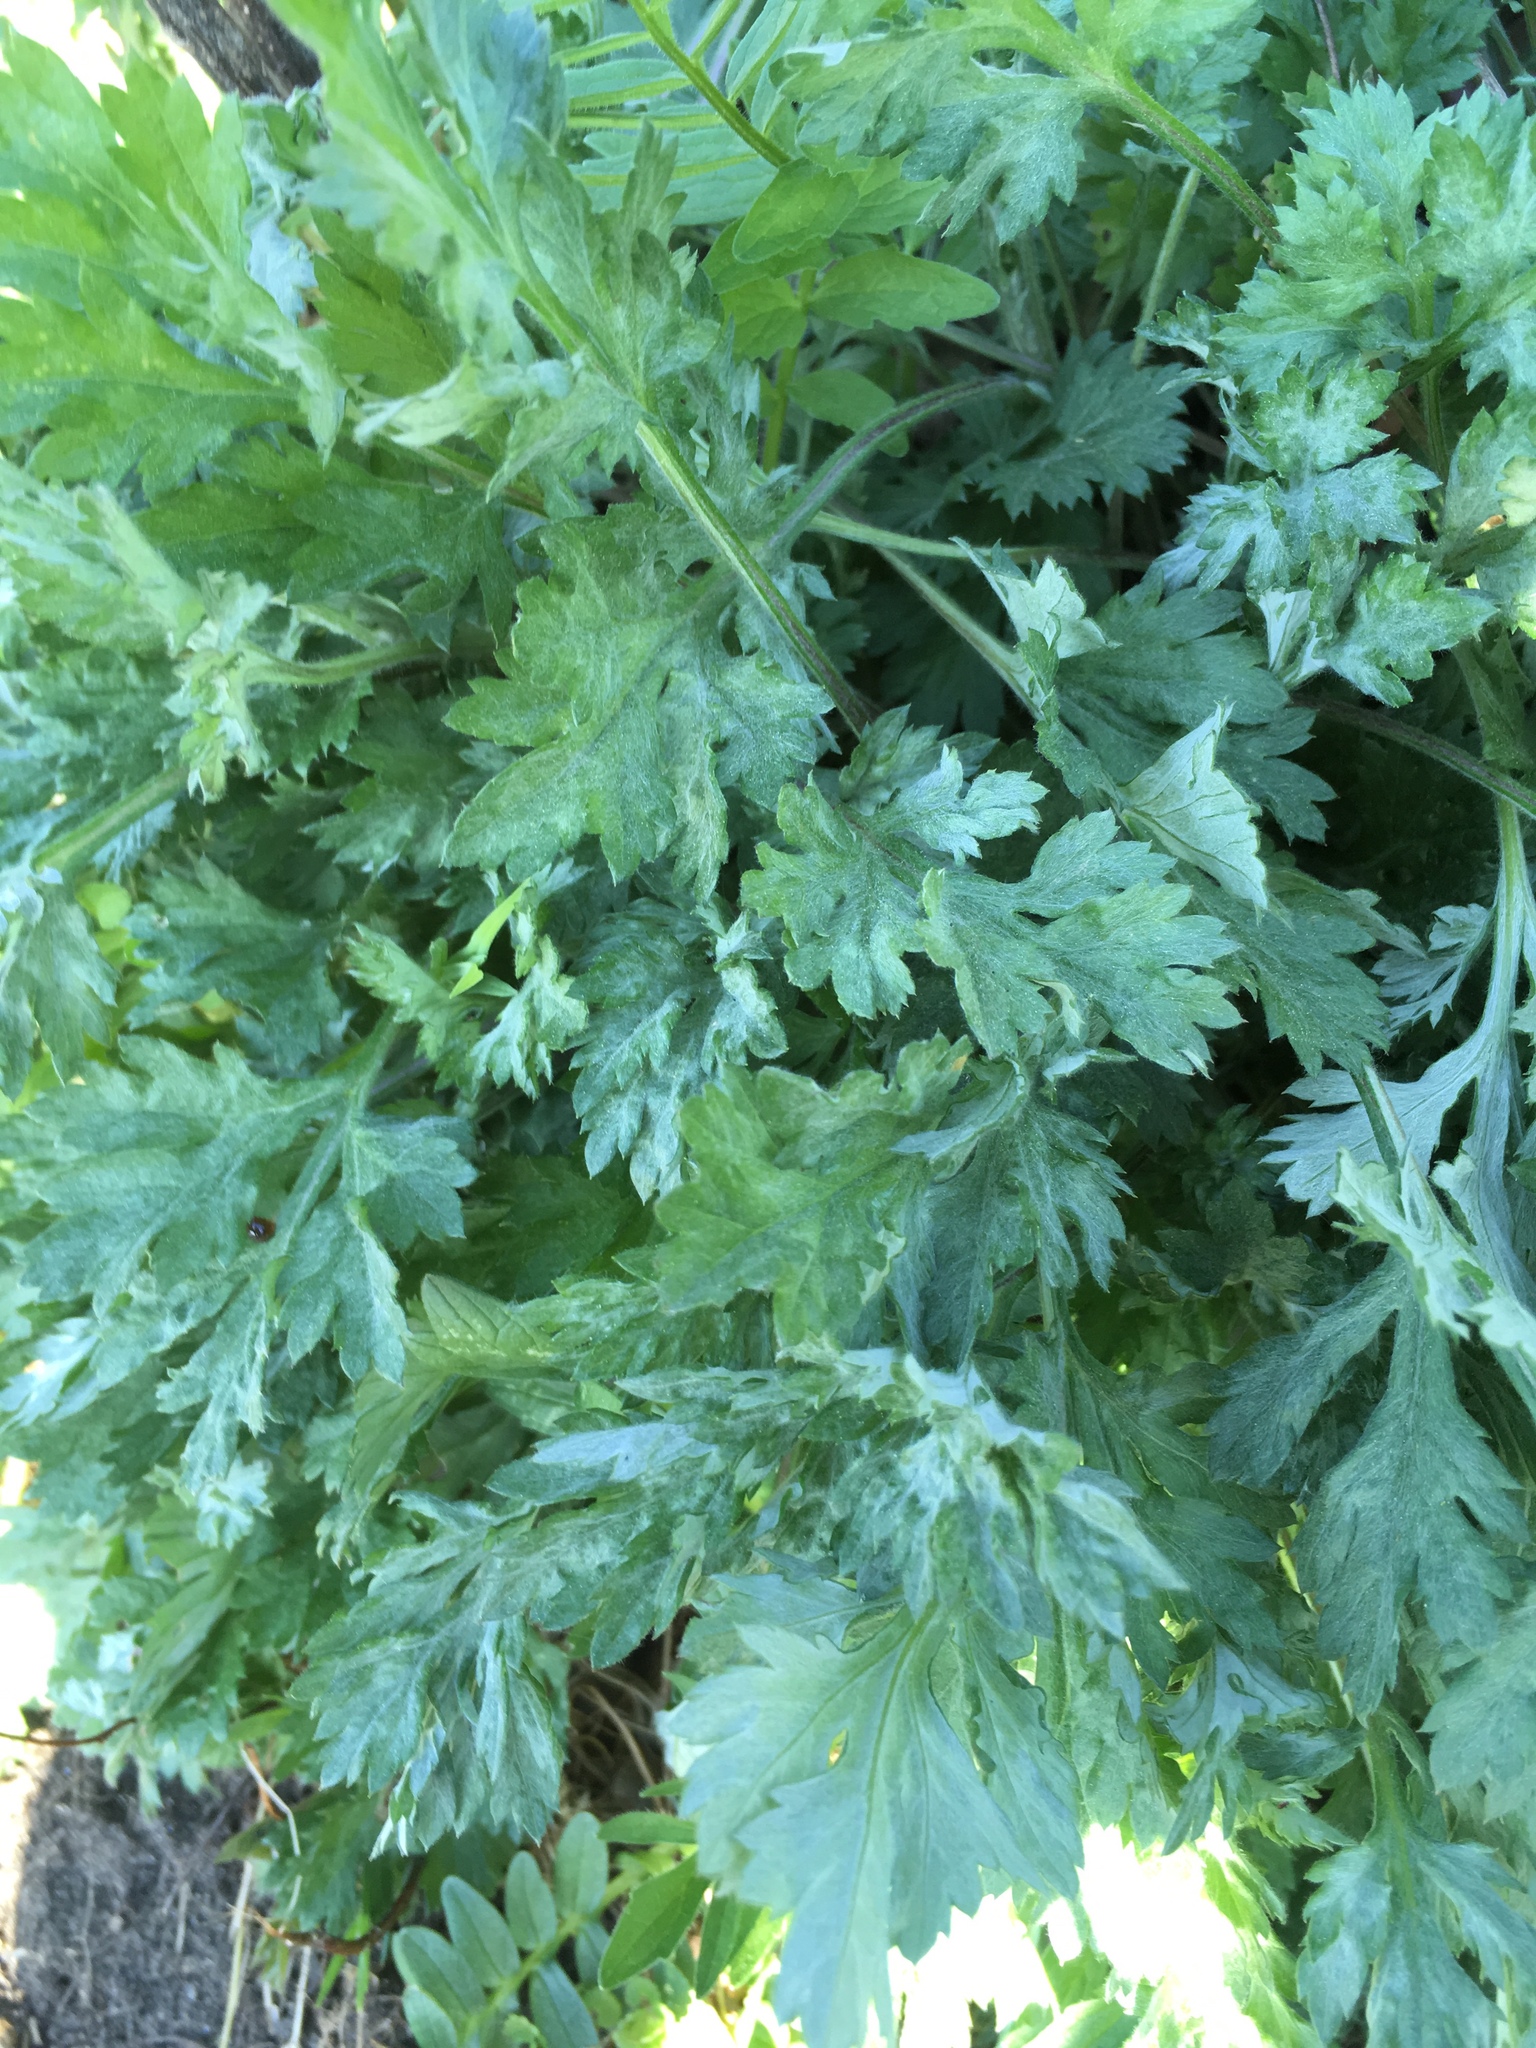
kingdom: Plantae
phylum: Tracheophyta
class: Magnoliopsida
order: Asterales
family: Asteraceae
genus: Artemisia
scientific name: Artemisia vulgaris
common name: Mugwort
